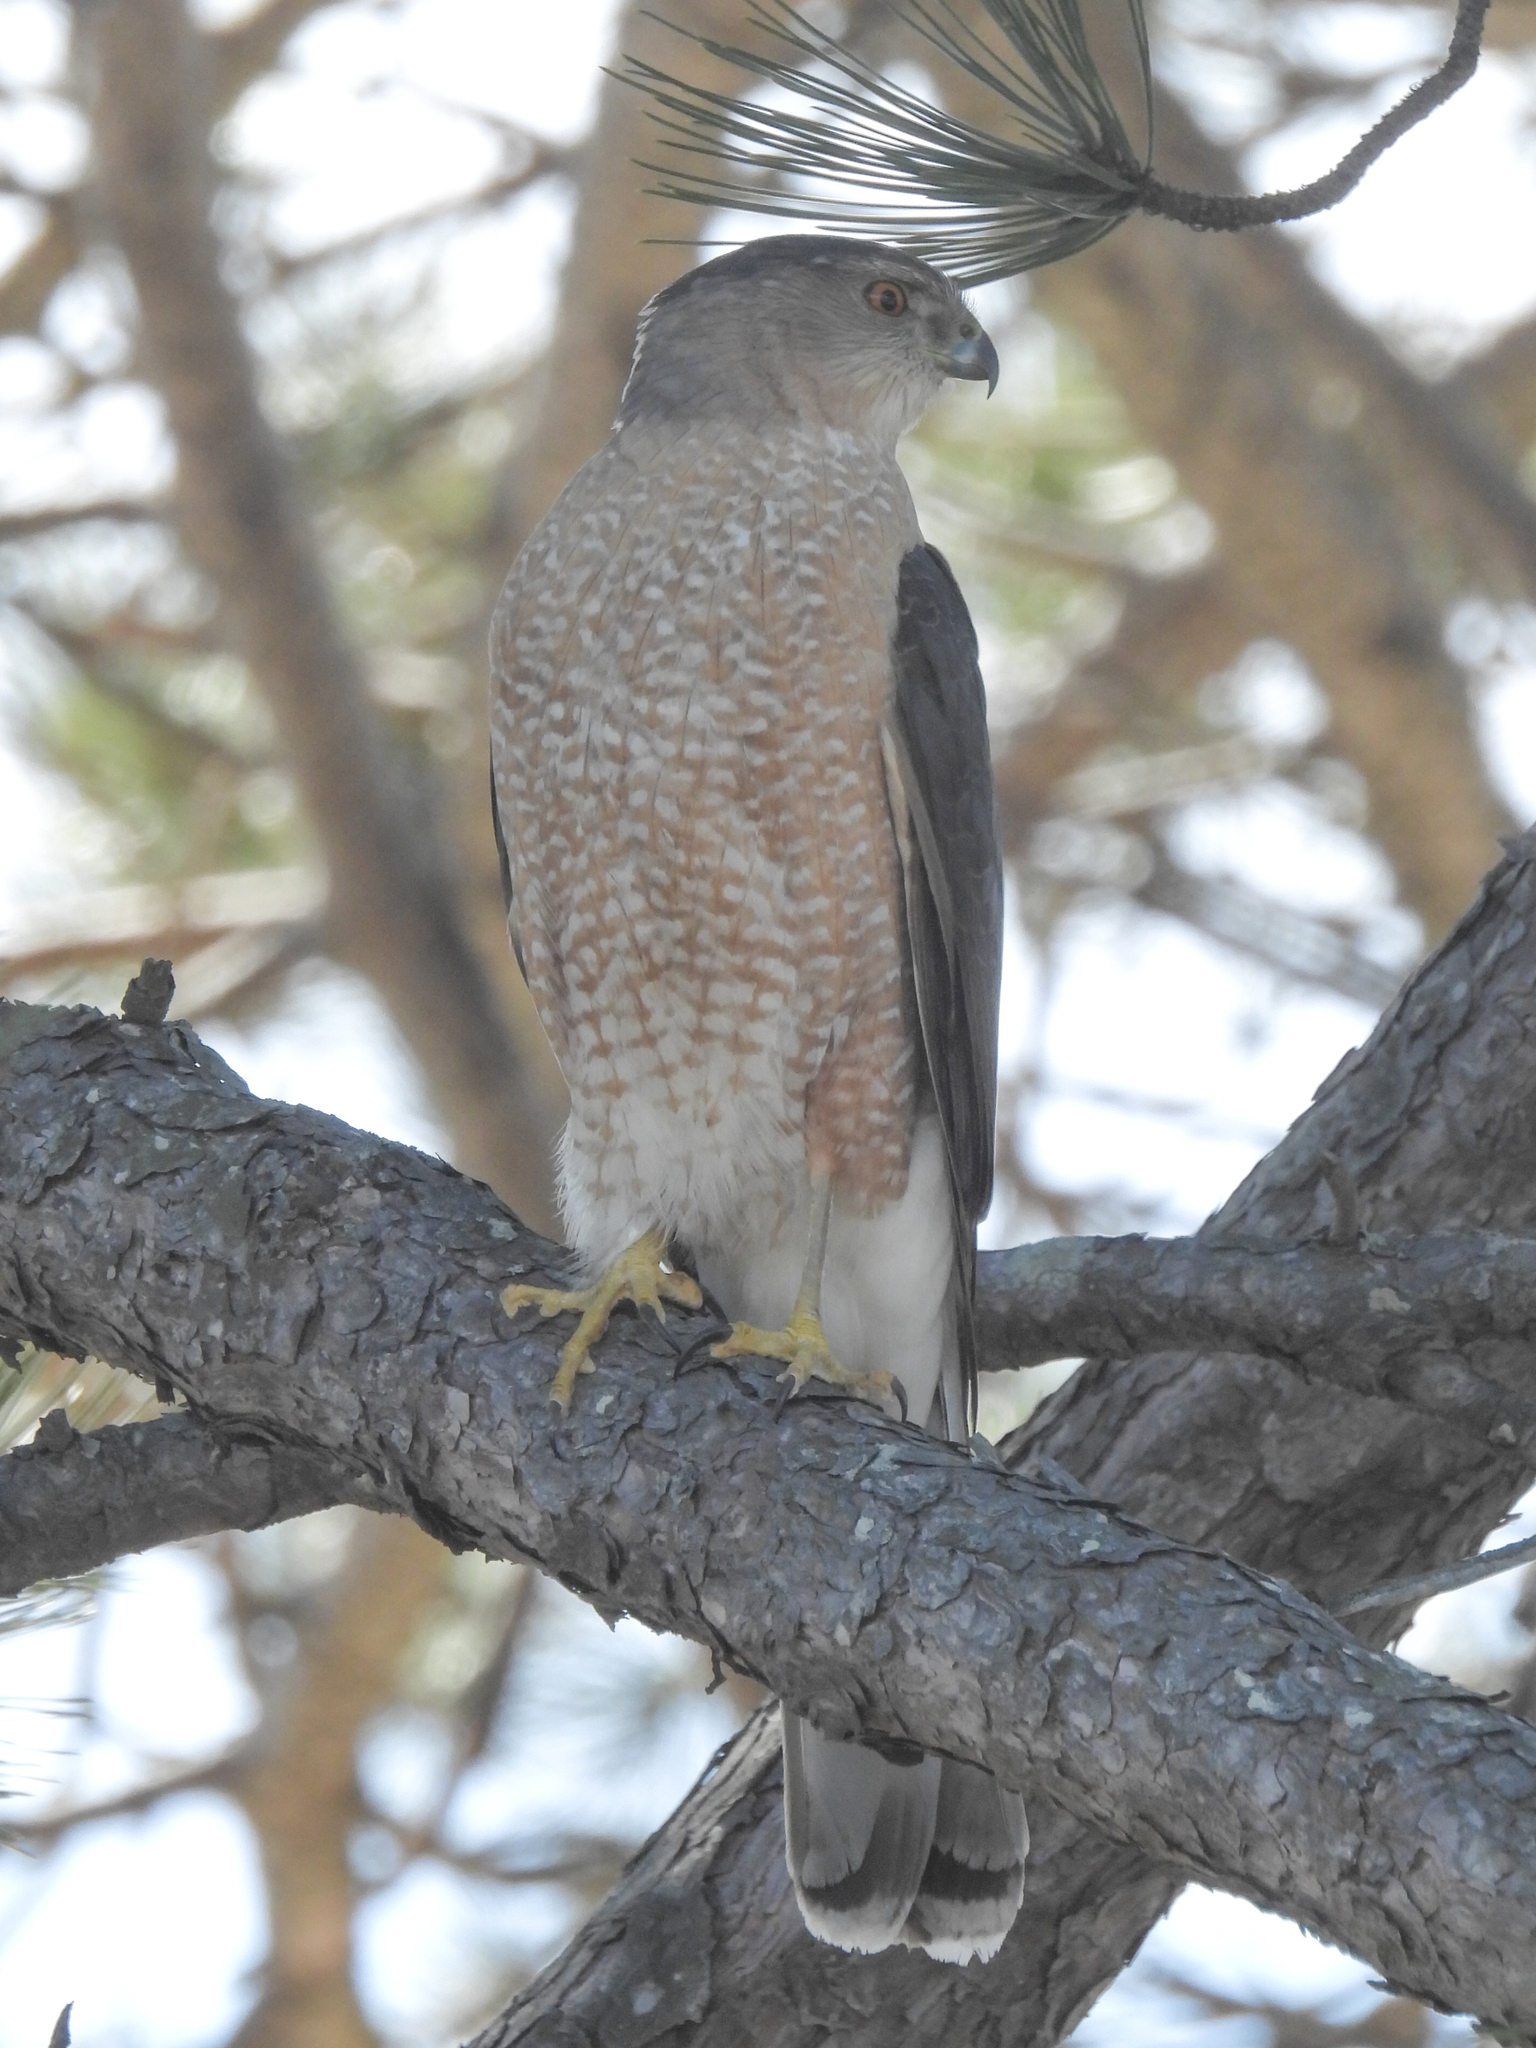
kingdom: Animalia
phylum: Chordata
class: Aves
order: Accipitriformes
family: Accipitridae
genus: Accipiter
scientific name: Accipiter cooperii
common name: Cooper's hawk
